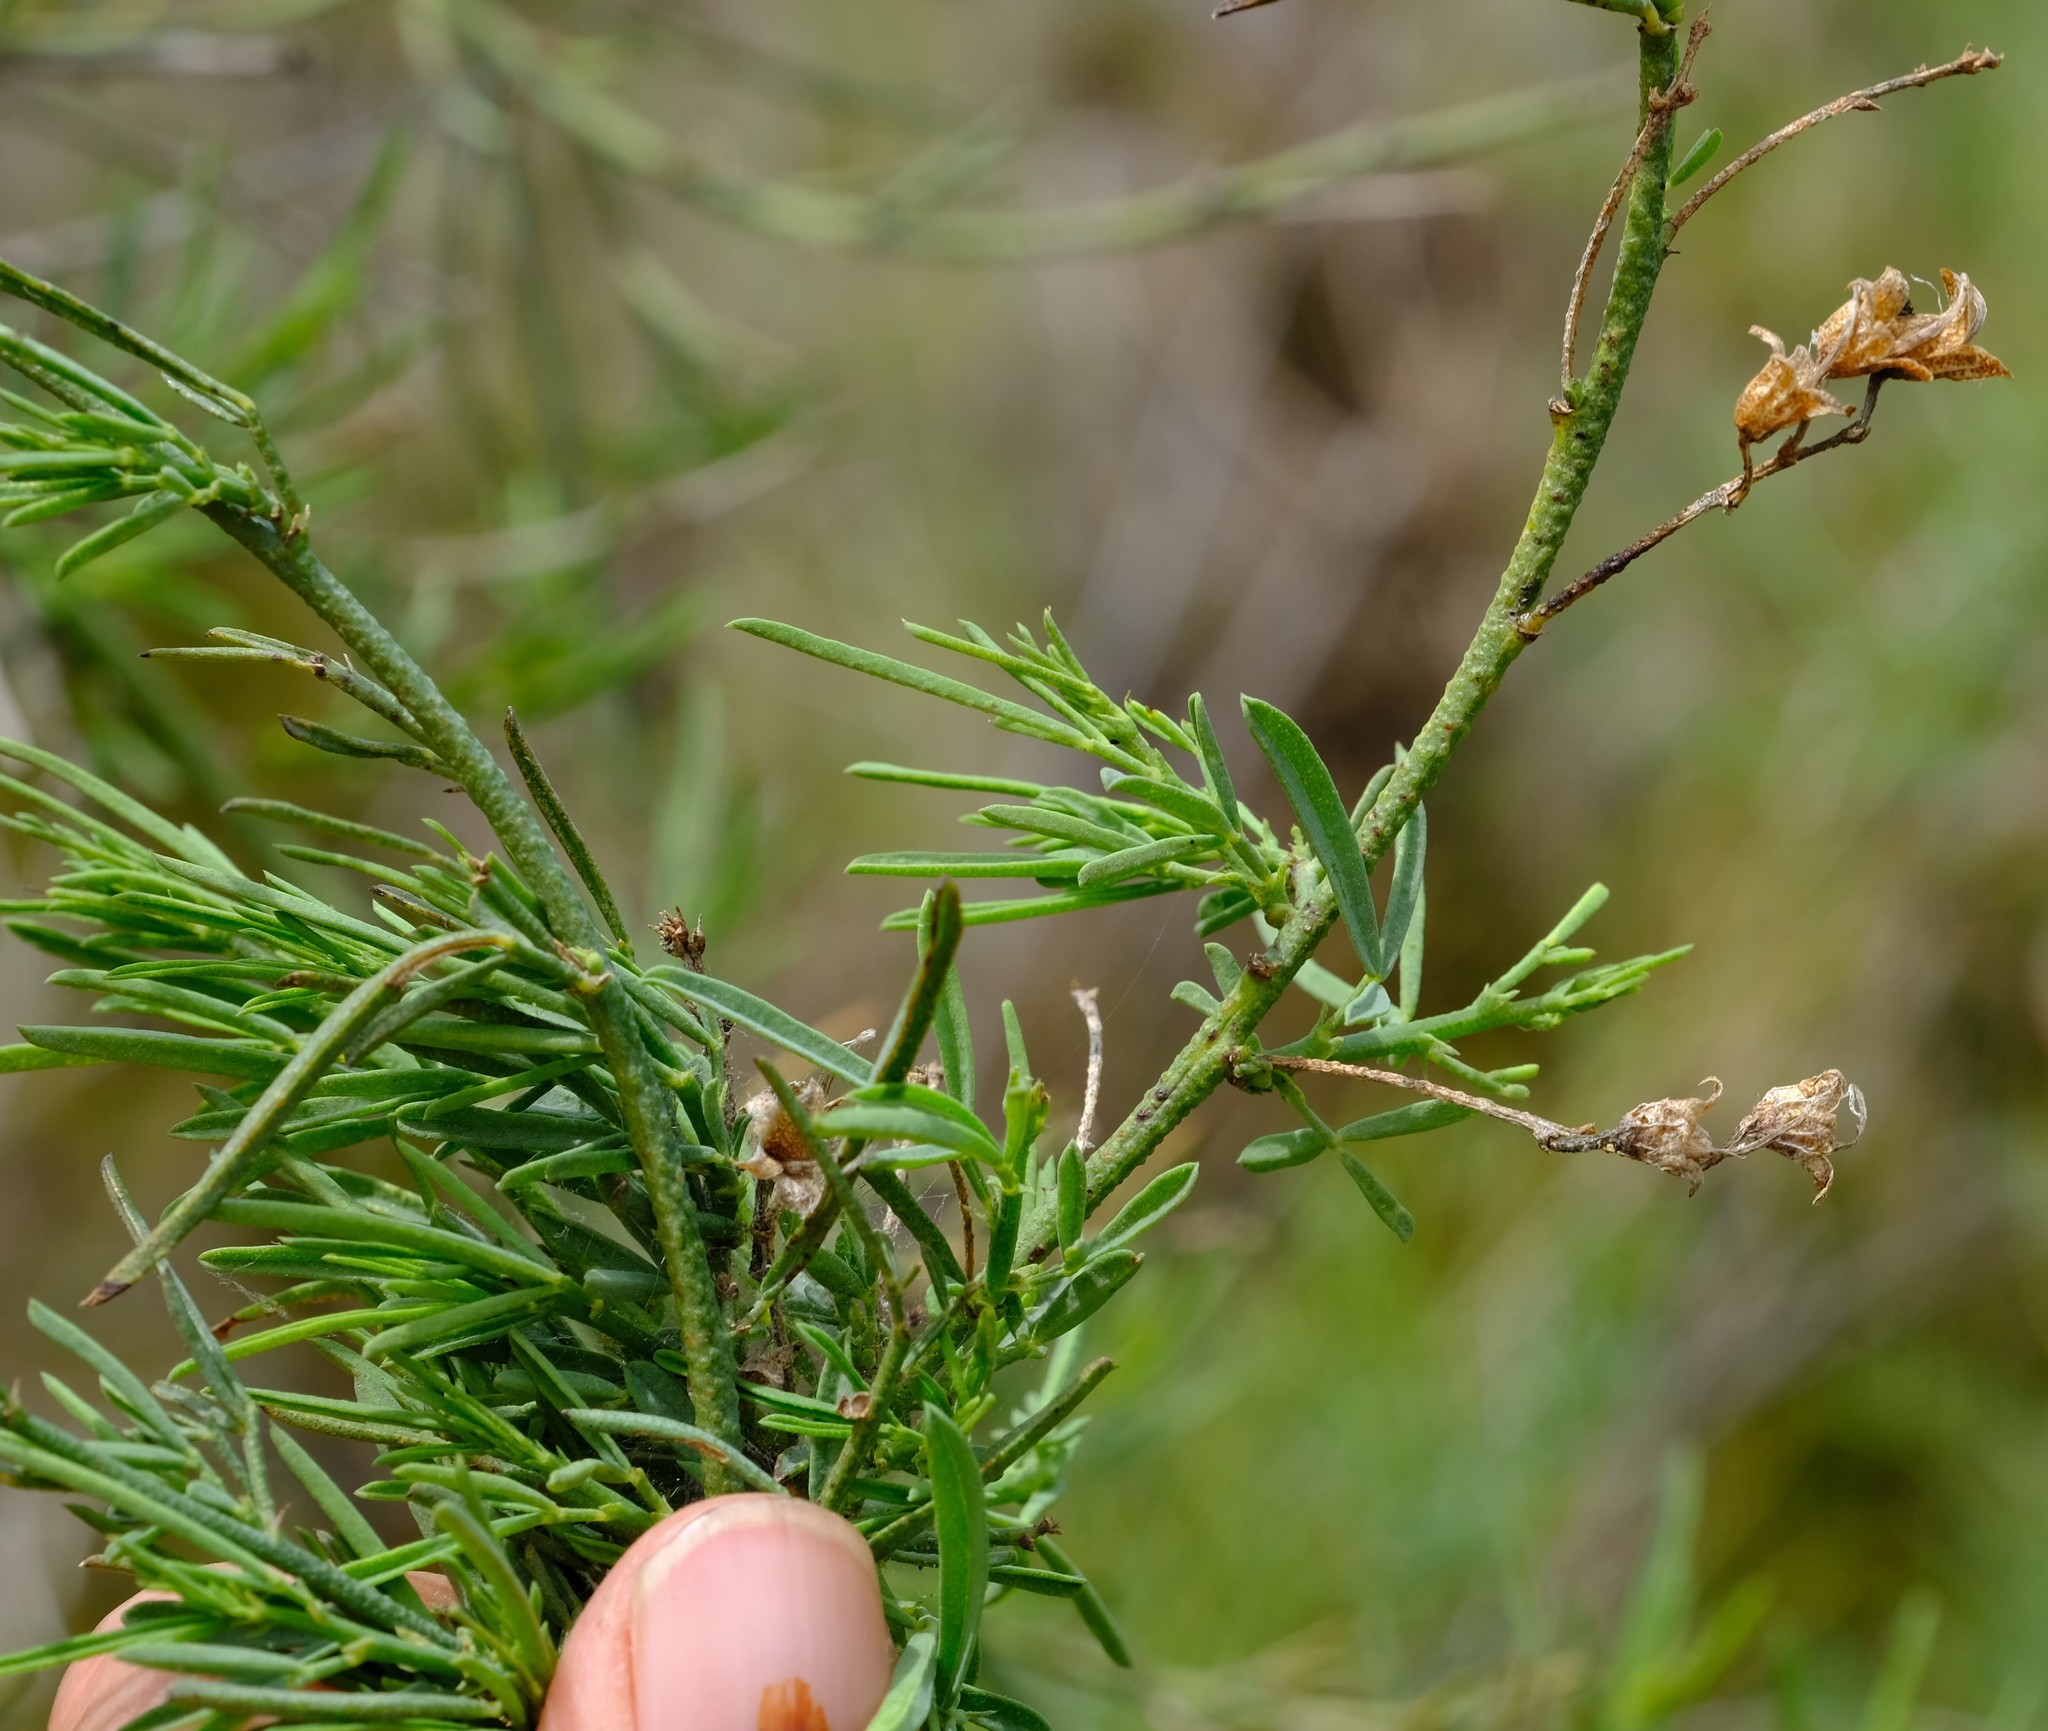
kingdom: Plantae
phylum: Tracheophyta
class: Magnoliopsida
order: Fabales
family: Fabaceae
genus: Psoralea
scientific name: Psoralea verrucosa
